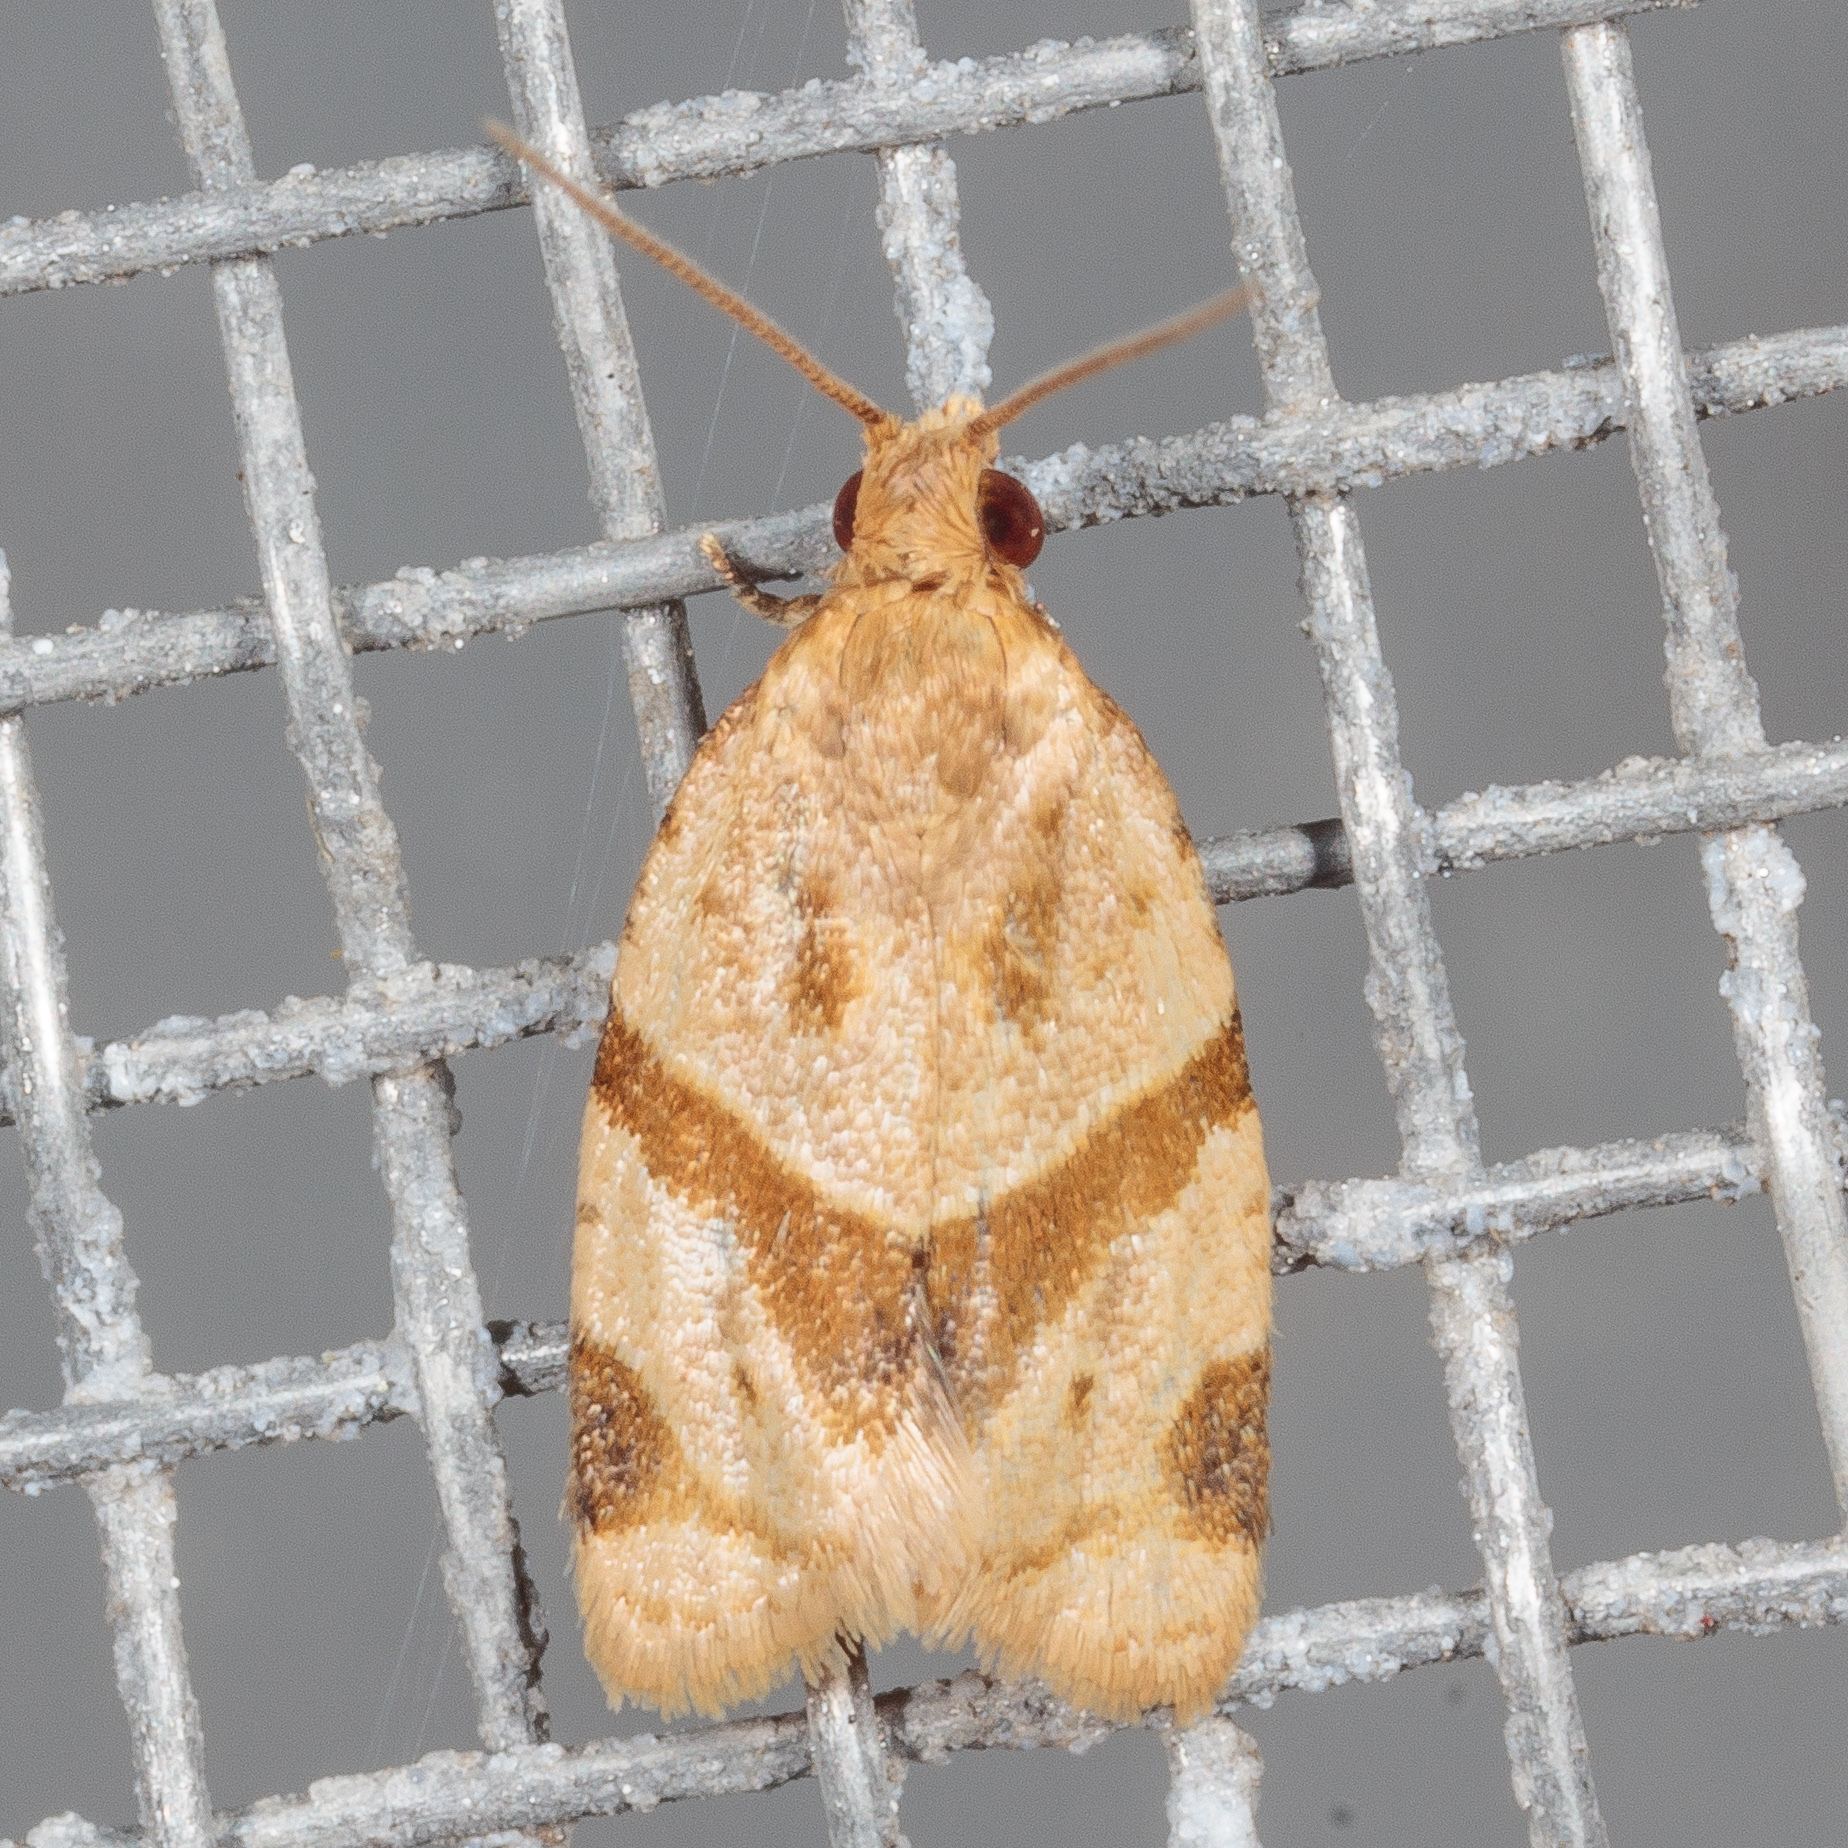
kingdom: Animalia
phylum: Arthropoda
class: Insecta
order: Lepidoptera
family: Tortricidae
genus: Clepsis
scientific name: Clepsis peritana
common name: Garden tortrix
